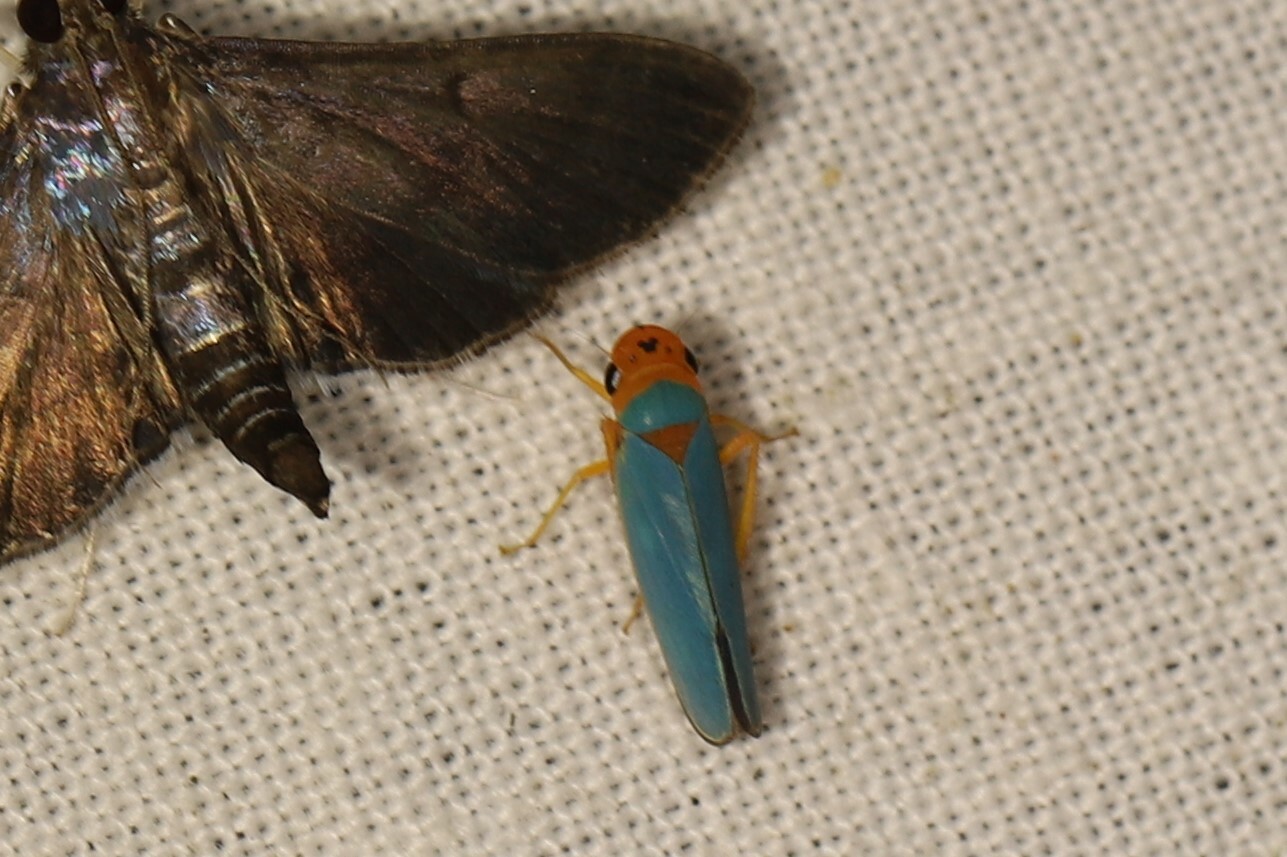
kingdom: Animalia
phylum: Arthropoda
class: Insecta
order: Hemiptera
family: Cicadellidae
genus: Macunolla
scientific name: Macunolla ventralis
